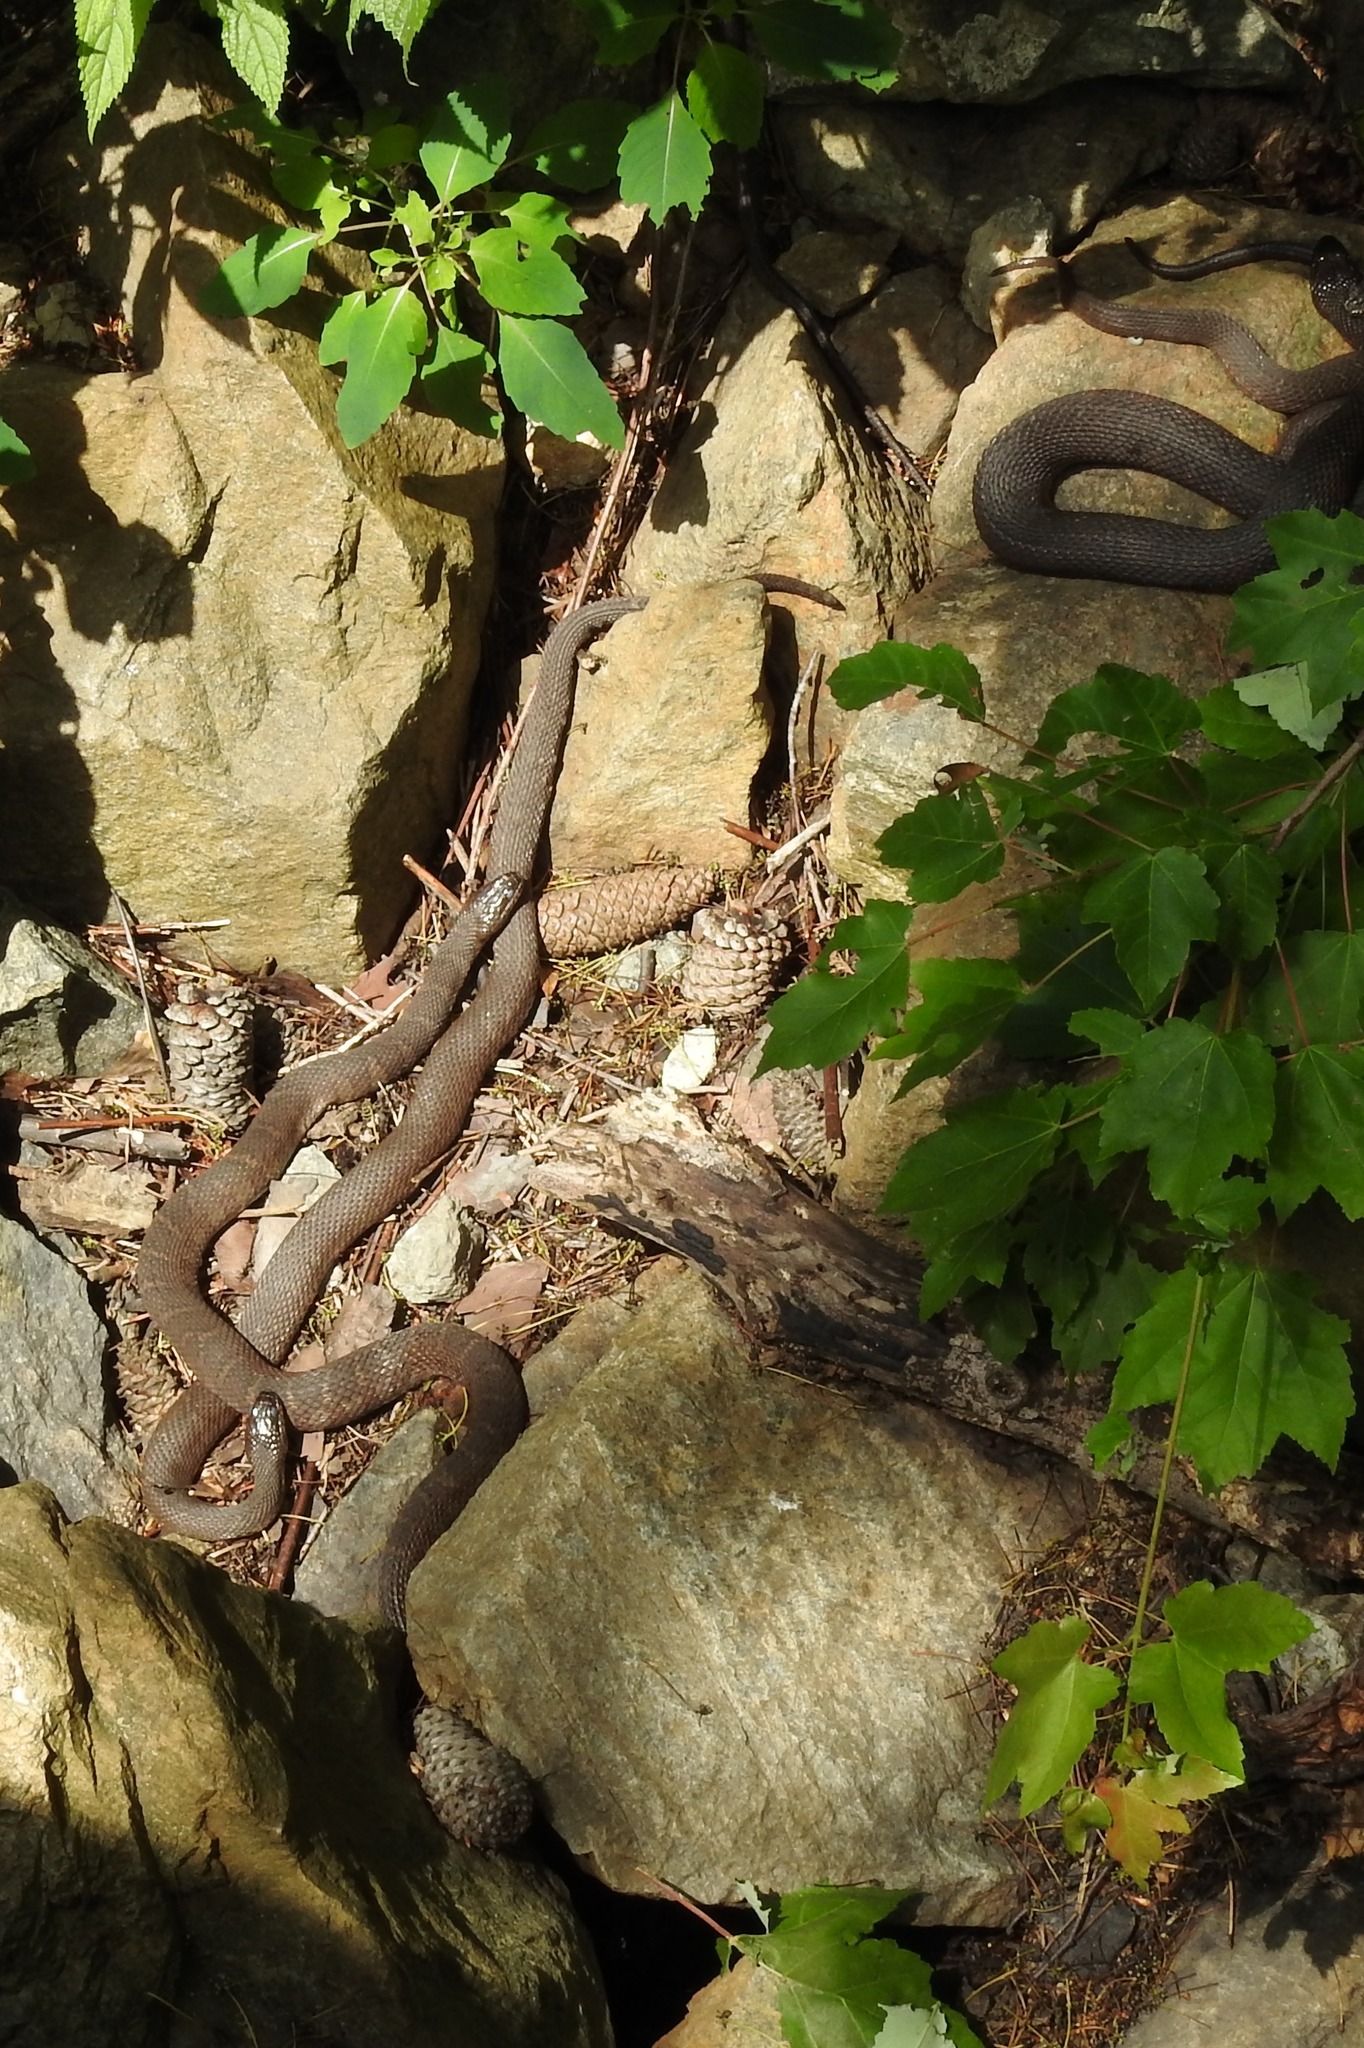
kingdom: Animalia
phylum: Chordata
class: Squamata
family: Colubridae
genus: Nerodia
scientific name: Nerodia sipedon
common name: Northern water snake
